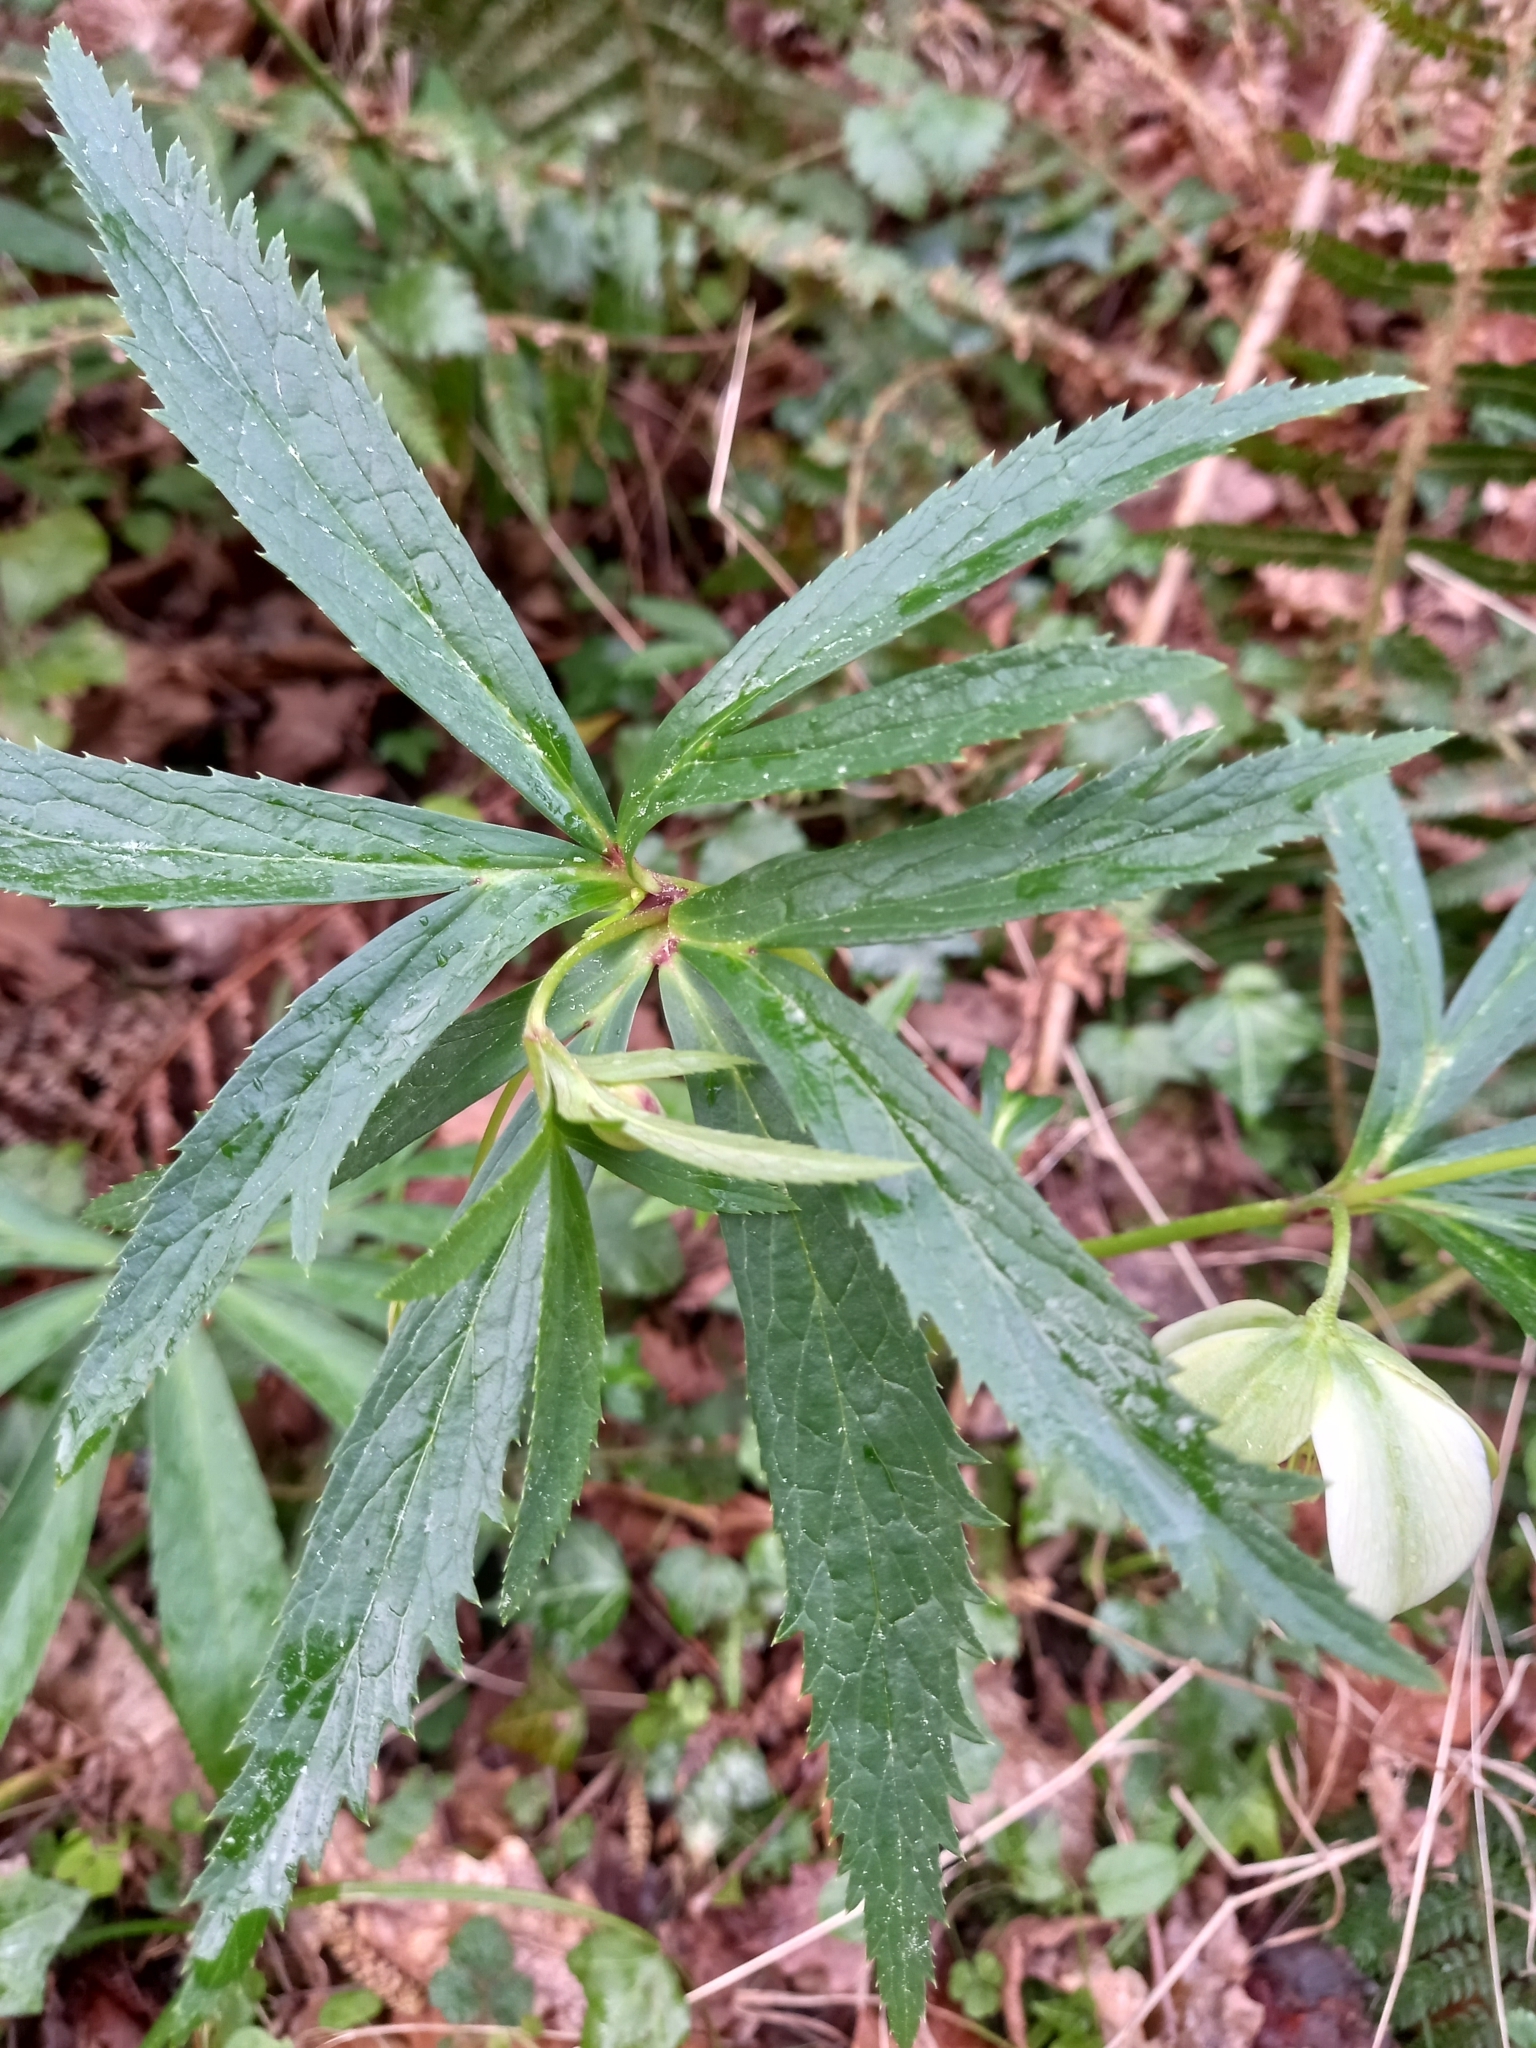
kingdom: Plantae
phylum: Tracheophyta
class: Magnoliopsida
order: Ranunculales
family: Ranunculaceae
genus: Helleborus
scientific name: Helleborus viridis
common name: Green hellebore
